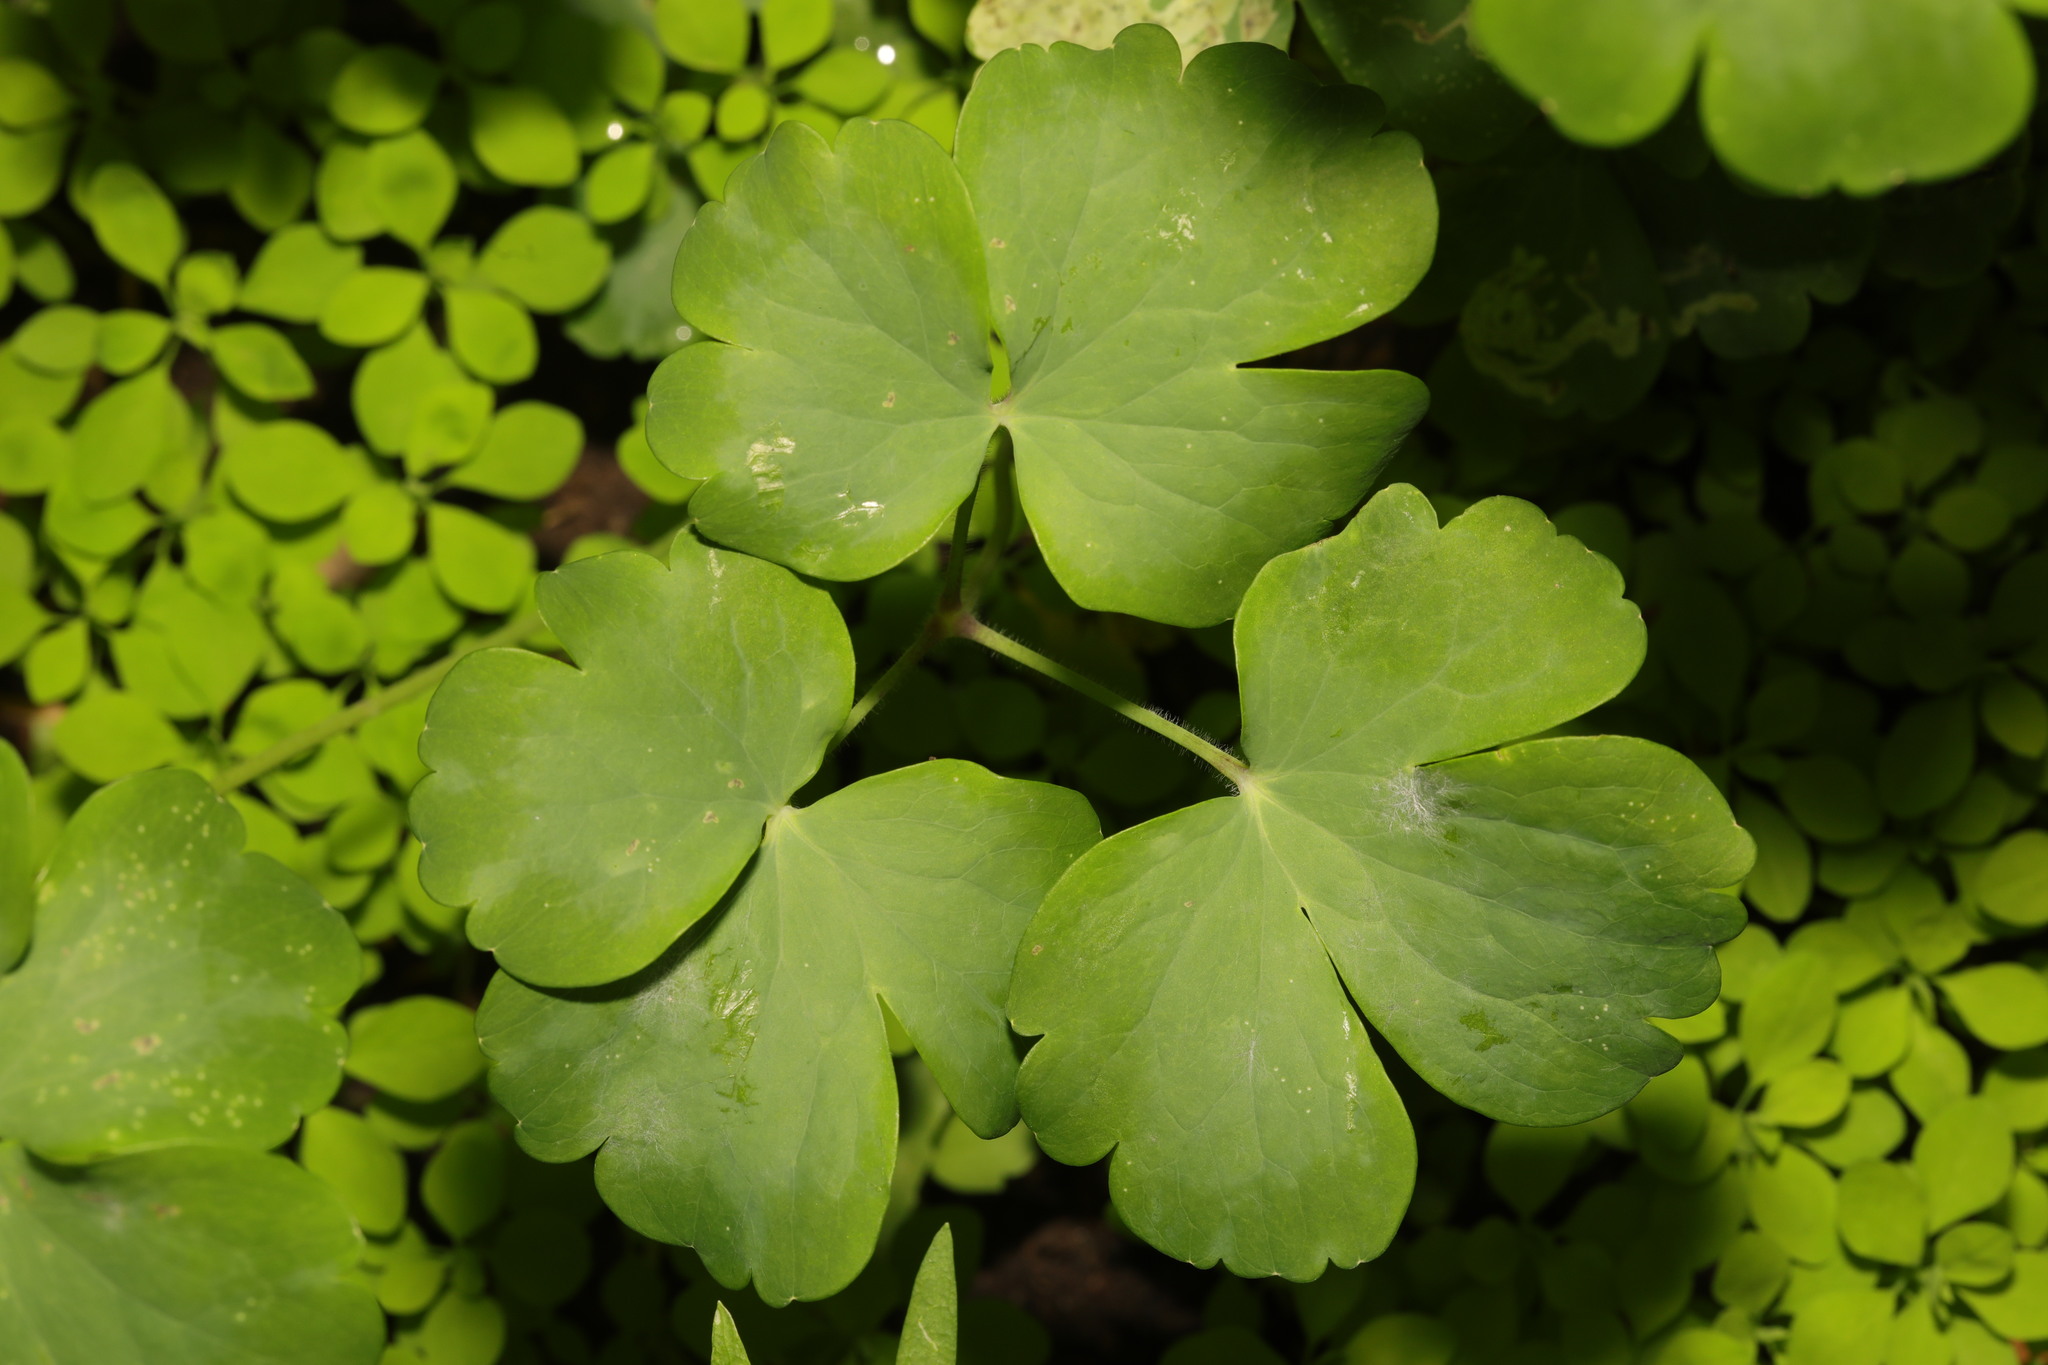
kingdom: Plantae
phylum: Tracheophyta
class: Magnoliopsida
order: Ranunculales
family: Ranunculaceae
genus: Aquilegia
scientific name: Aquilegia vulgaris
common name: Columbine
